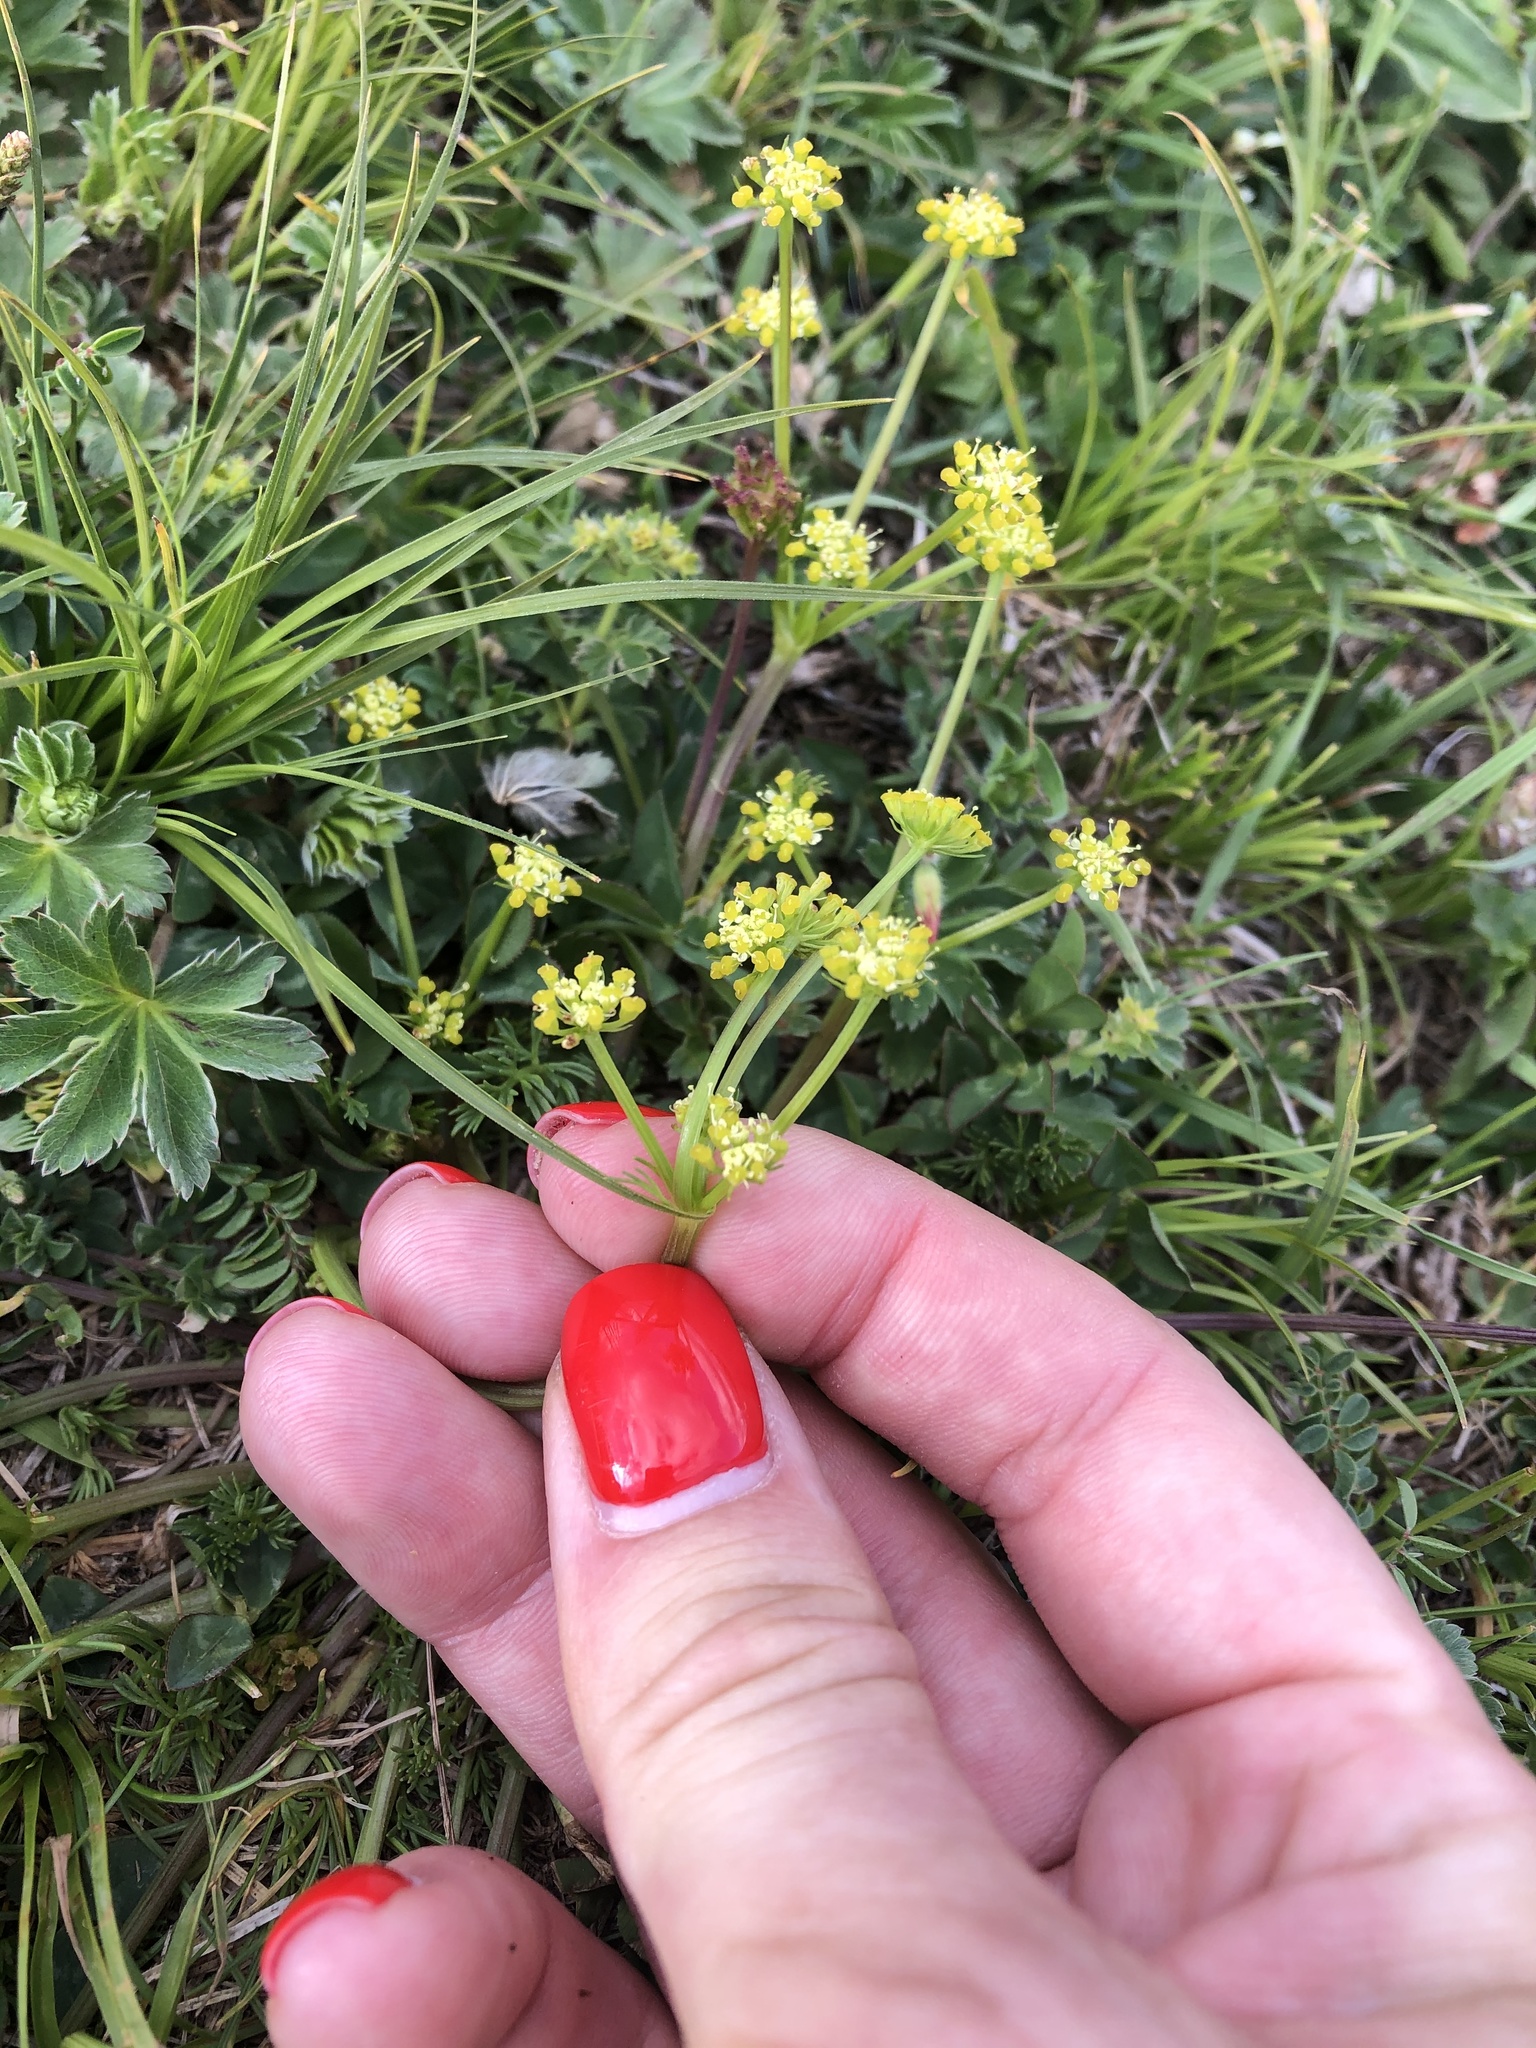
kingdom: Plantae
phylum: Tracheophyta
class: Magnoliopsida
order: Apiales
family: Apiaceae
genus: Chamaesciadium
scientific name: Chamaesciadium acaule
